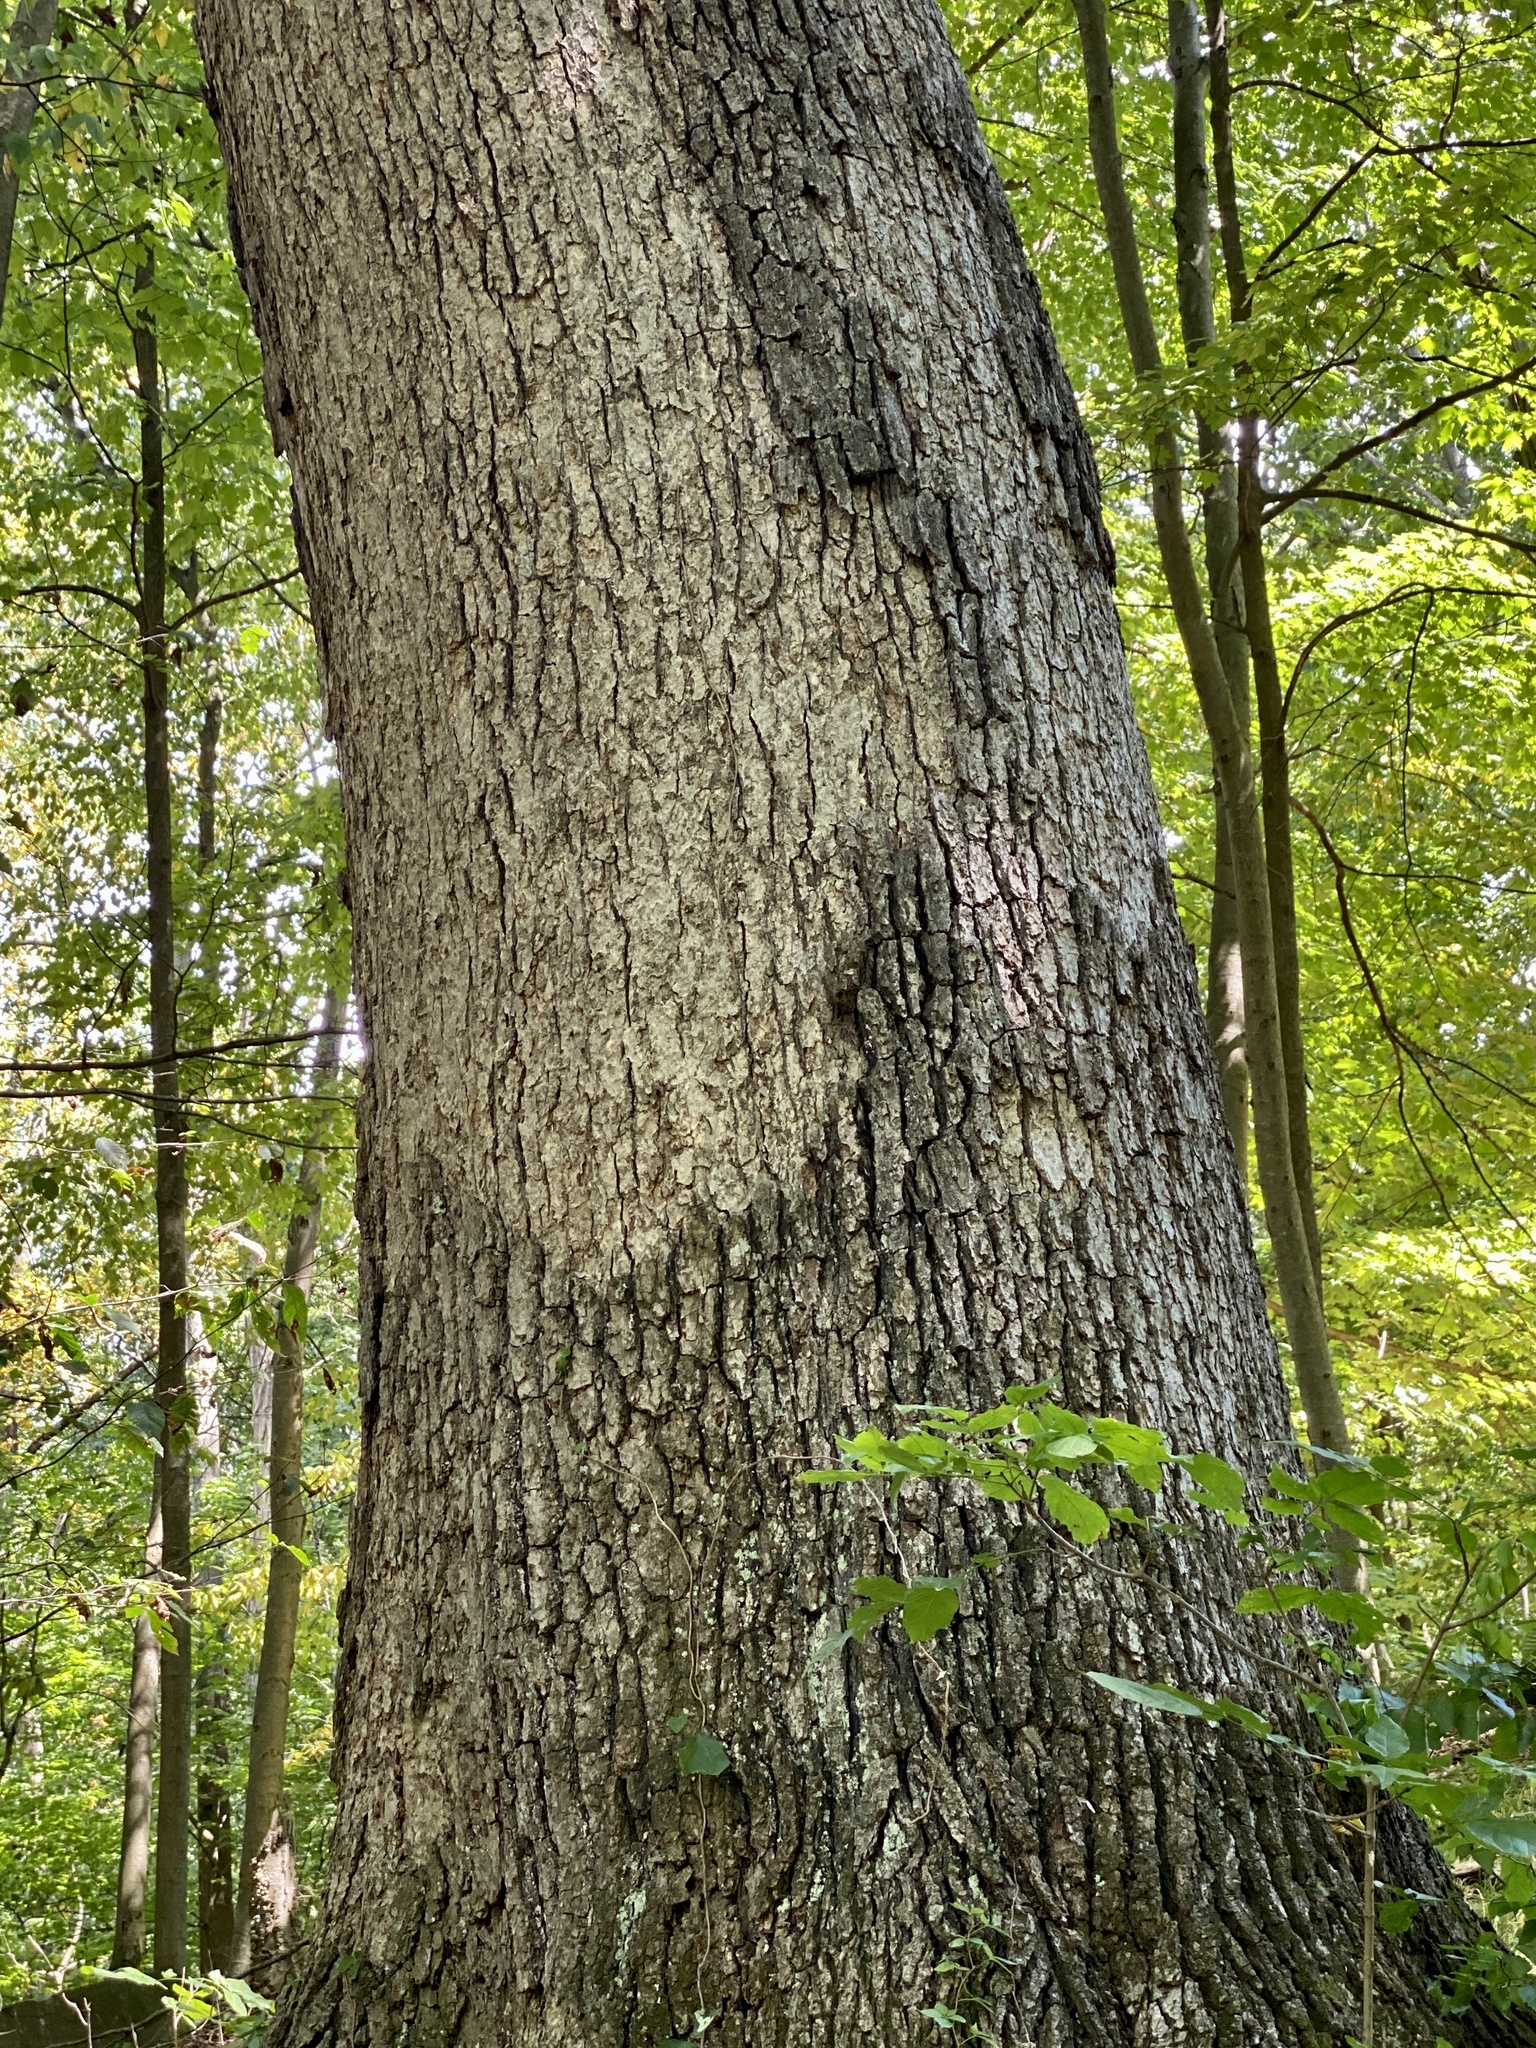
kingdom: Plantae
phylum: Tracheophyta
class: Magnoliopsida
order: Fagales
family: Fagaceae
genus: Quercus
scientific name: Quercus alba
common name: White oak
